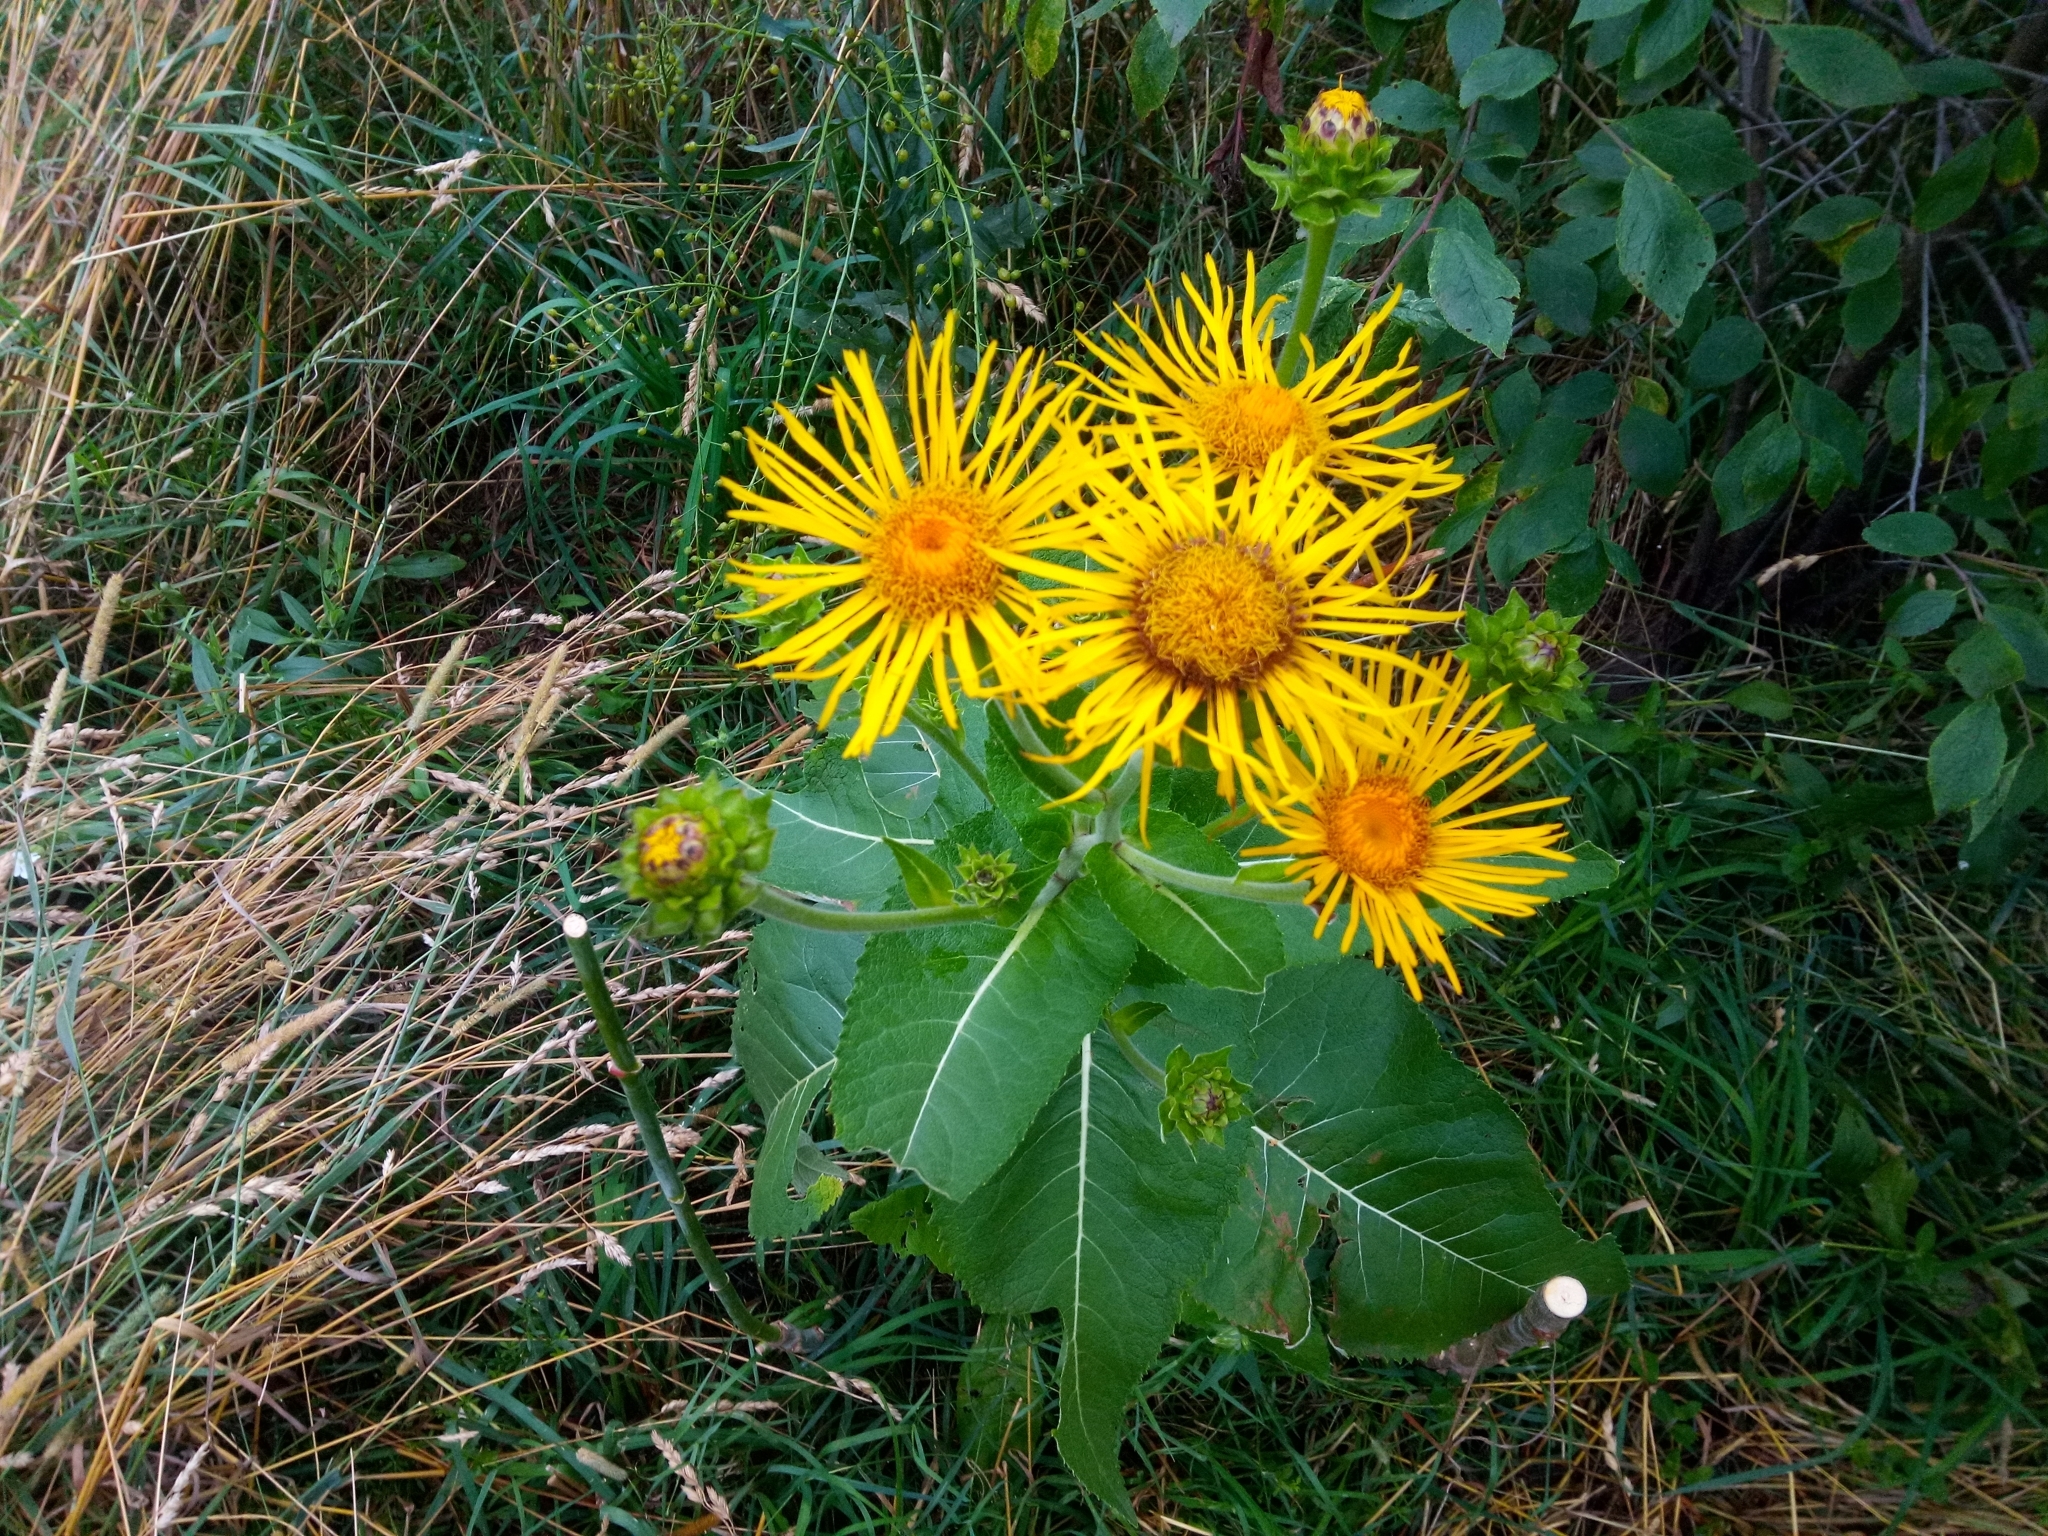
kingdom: Plantae
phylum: Tracheophyta
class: Magnoliopsida
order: Asterales
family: Asteraceae
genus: Inula
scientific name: Inula helenium
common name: Elecampane
